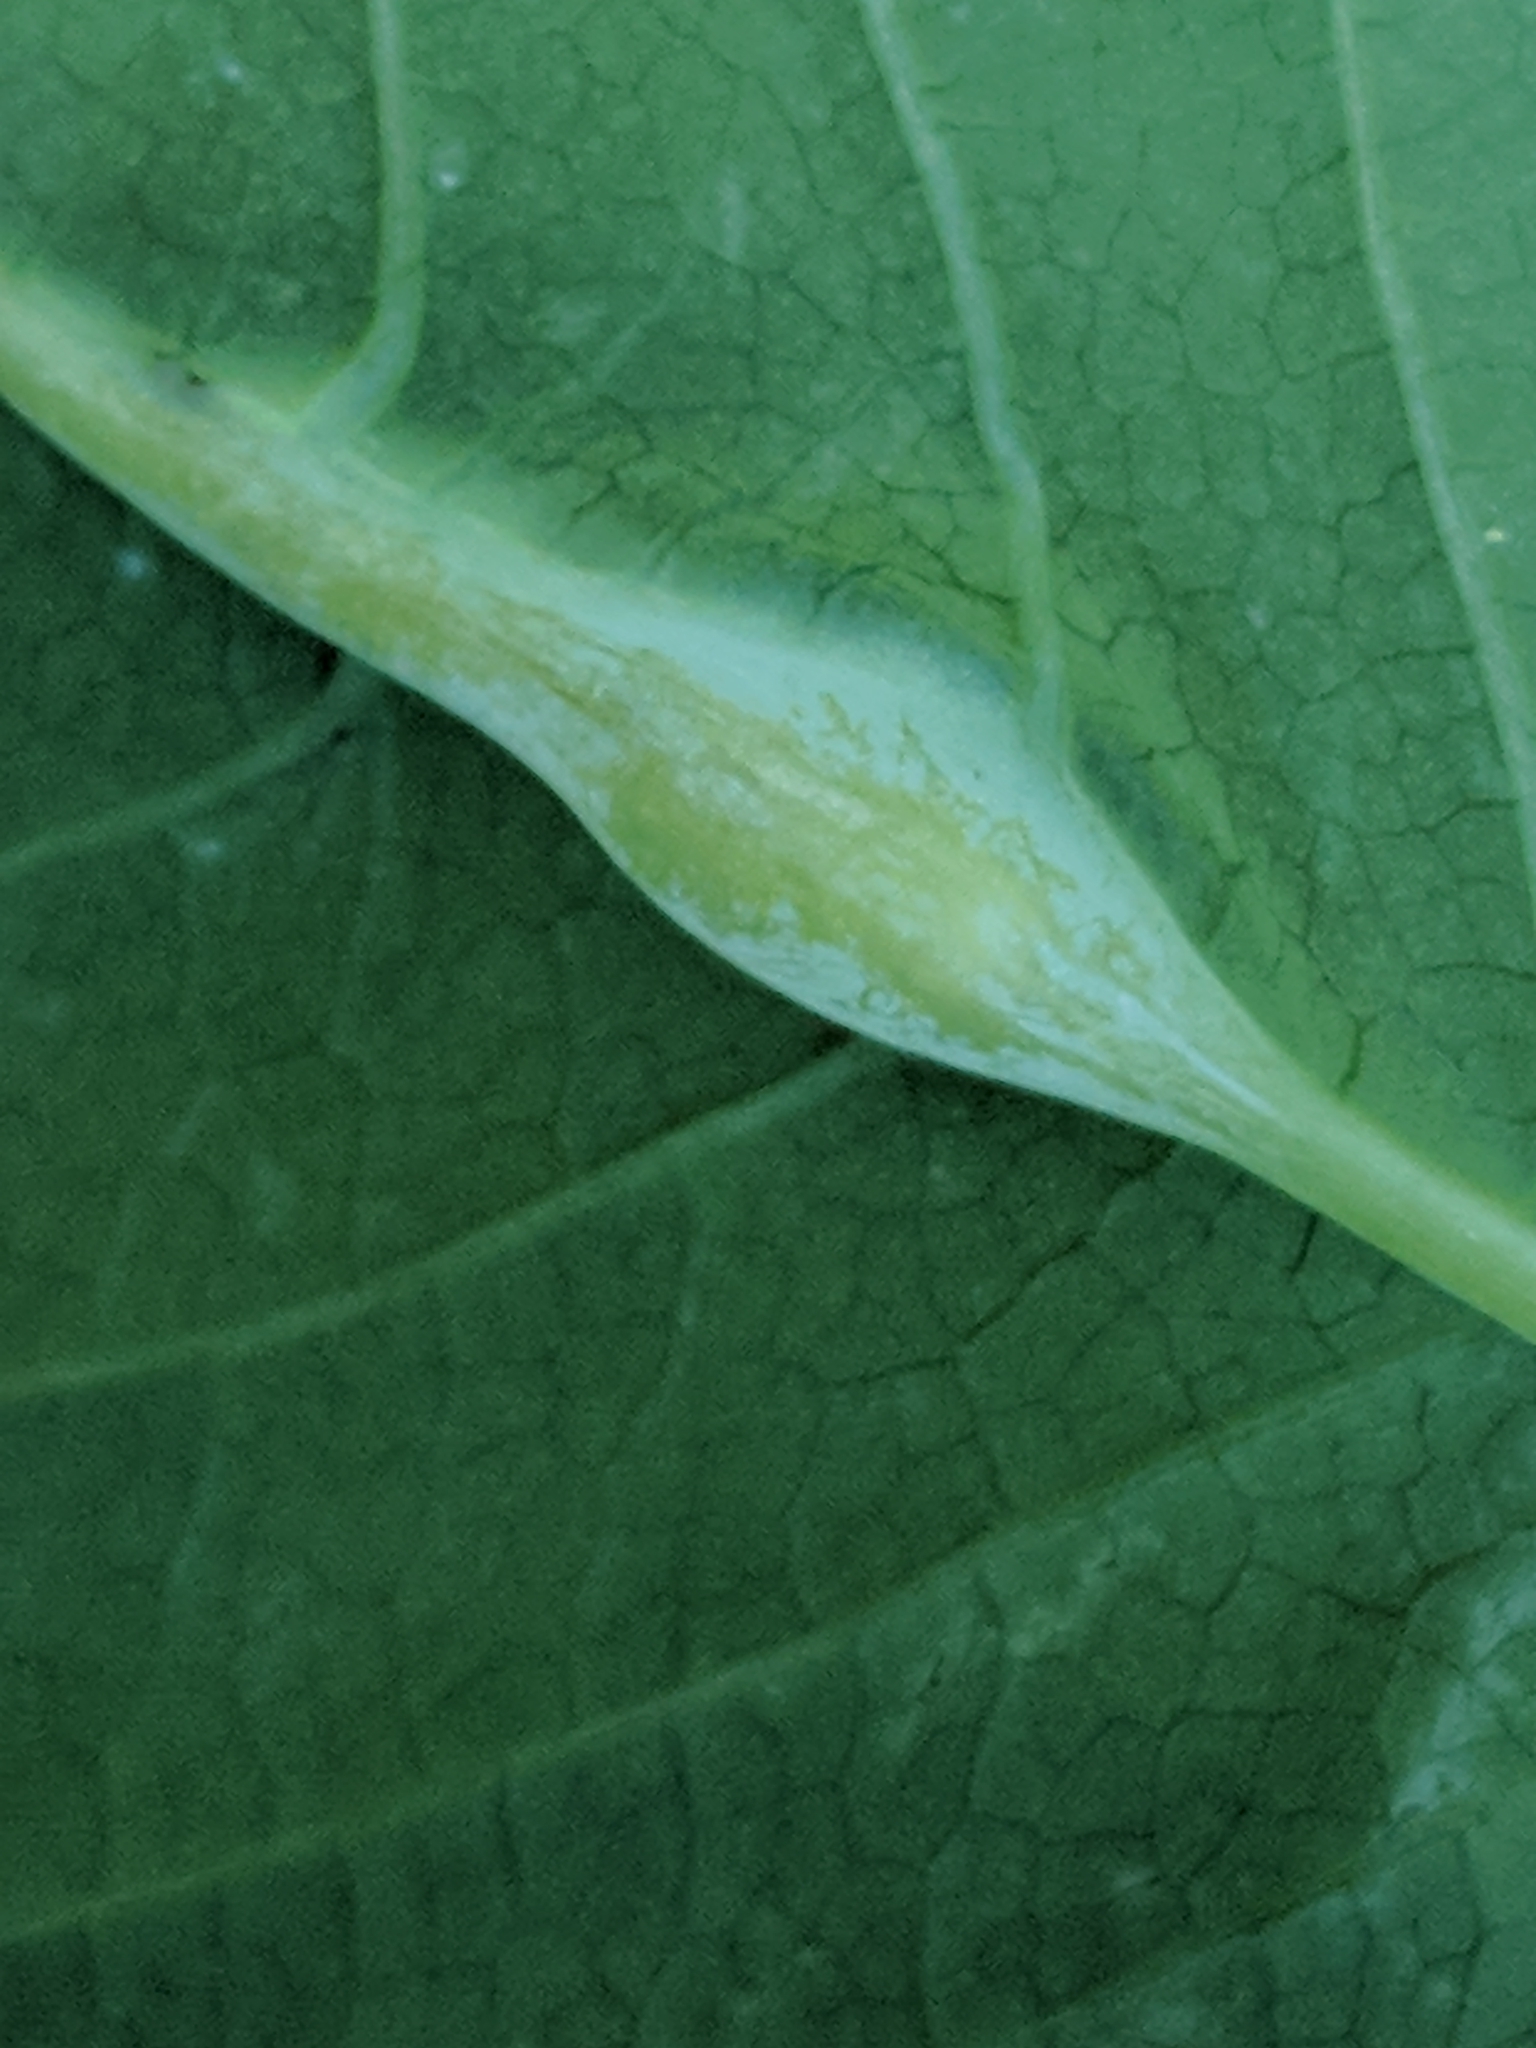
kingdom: Animalia
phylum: Arthropoda
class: Insecta
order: Diptera
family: Cecidomyiidae
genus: Neolasioptera
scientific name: Neolasioptera impatientifolia
